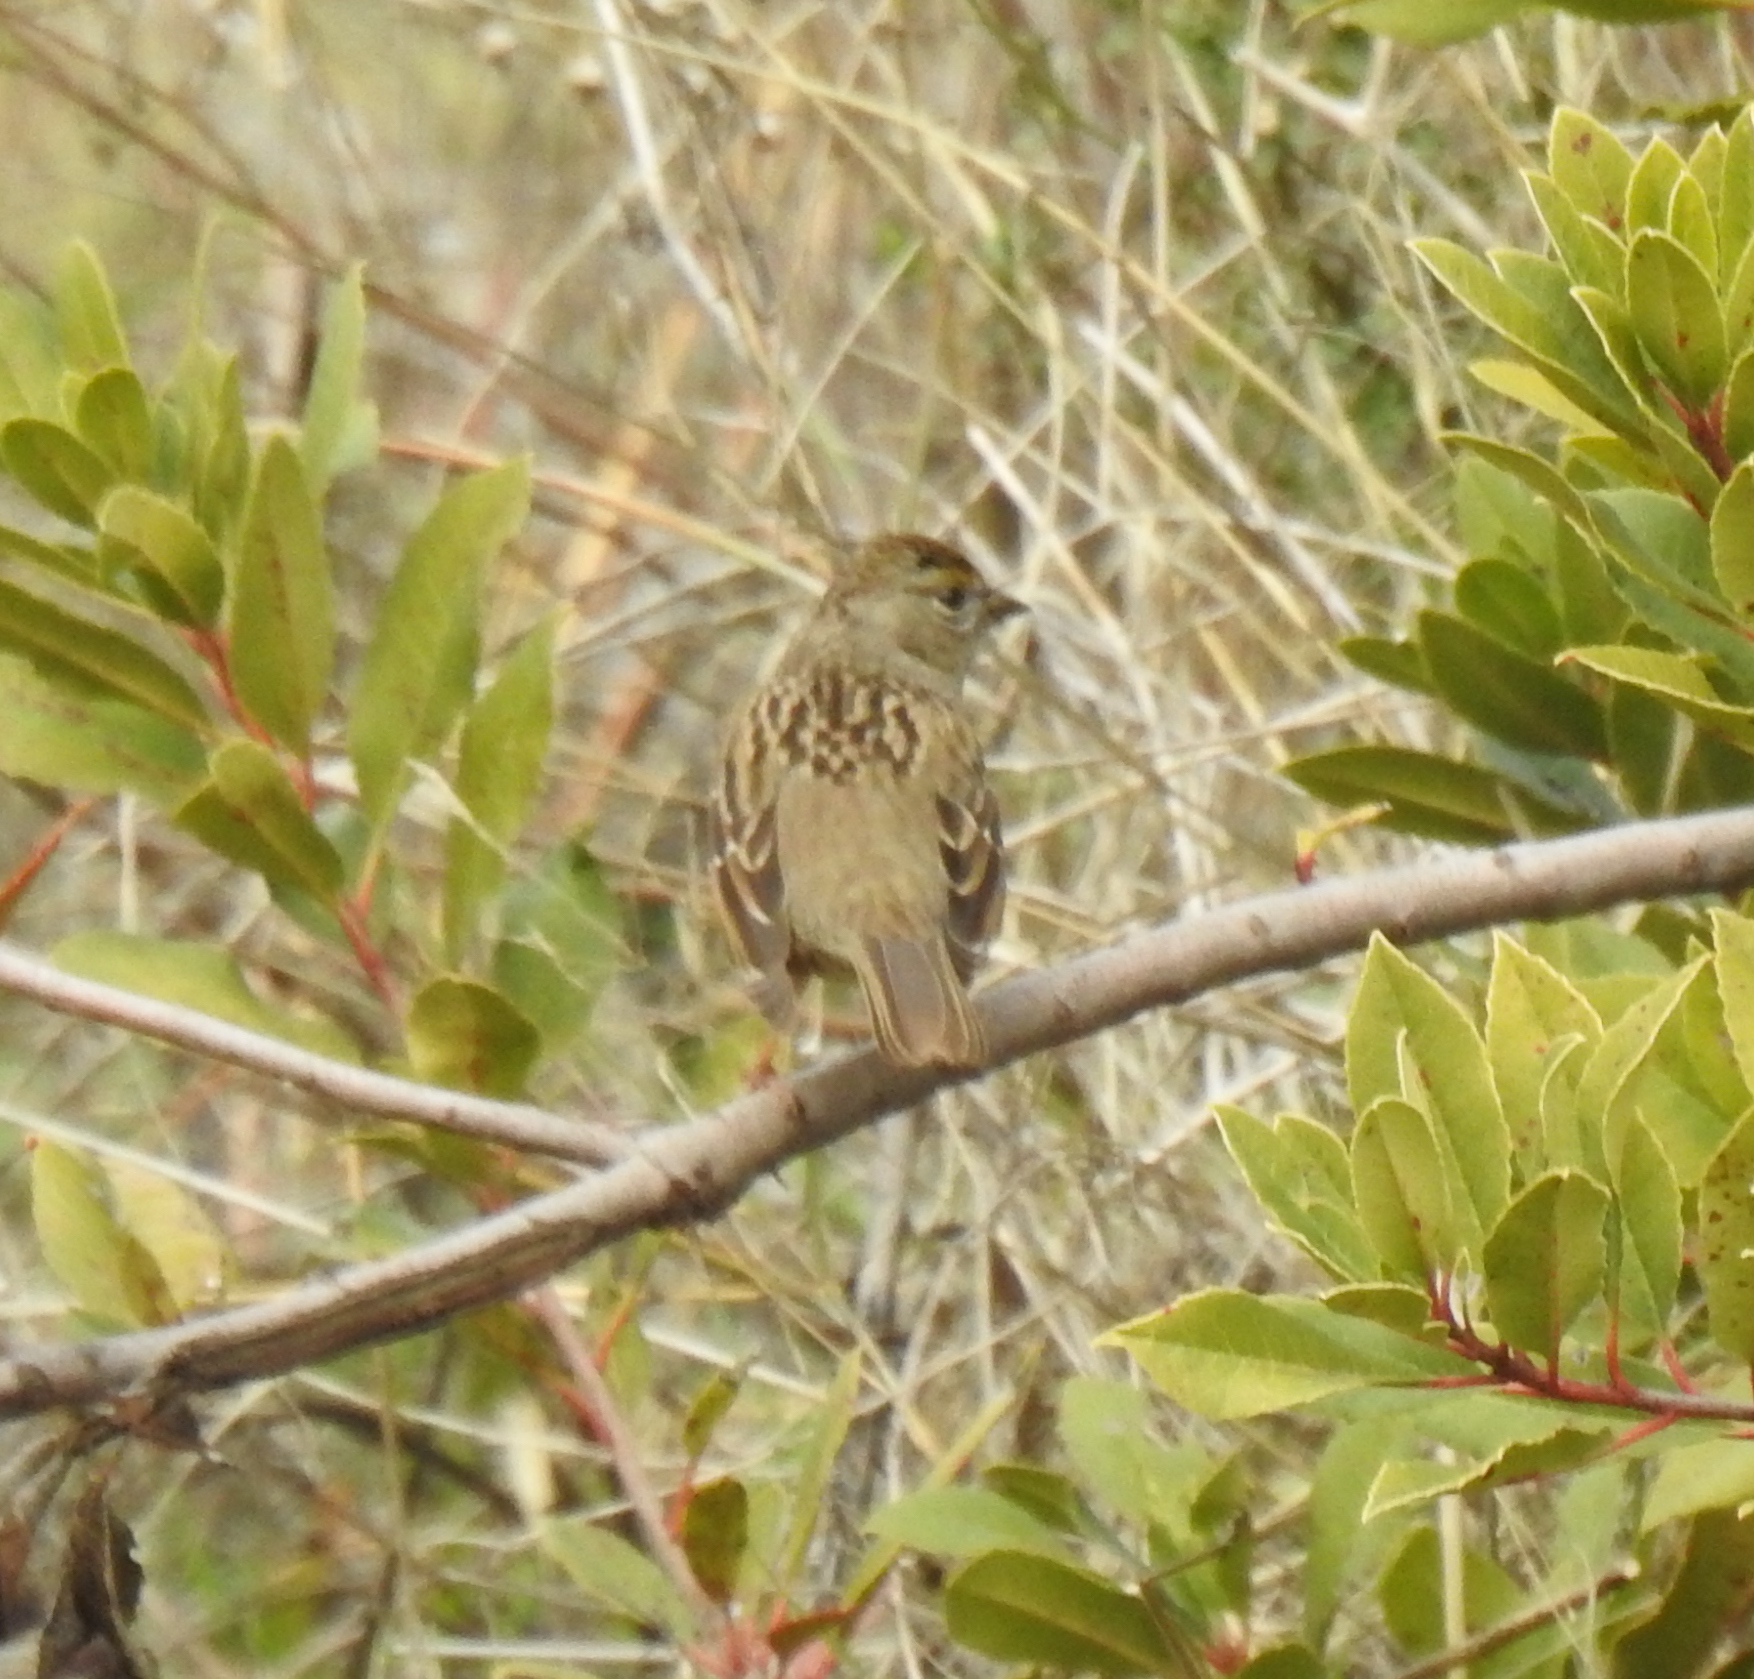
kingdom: Animalia
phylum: Chordata
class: Aves
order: Passeriformes
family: Passerellidae
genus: Zonotrichia
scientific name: Zonotrichia atricapilla
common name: Golden-crowned sparrow
